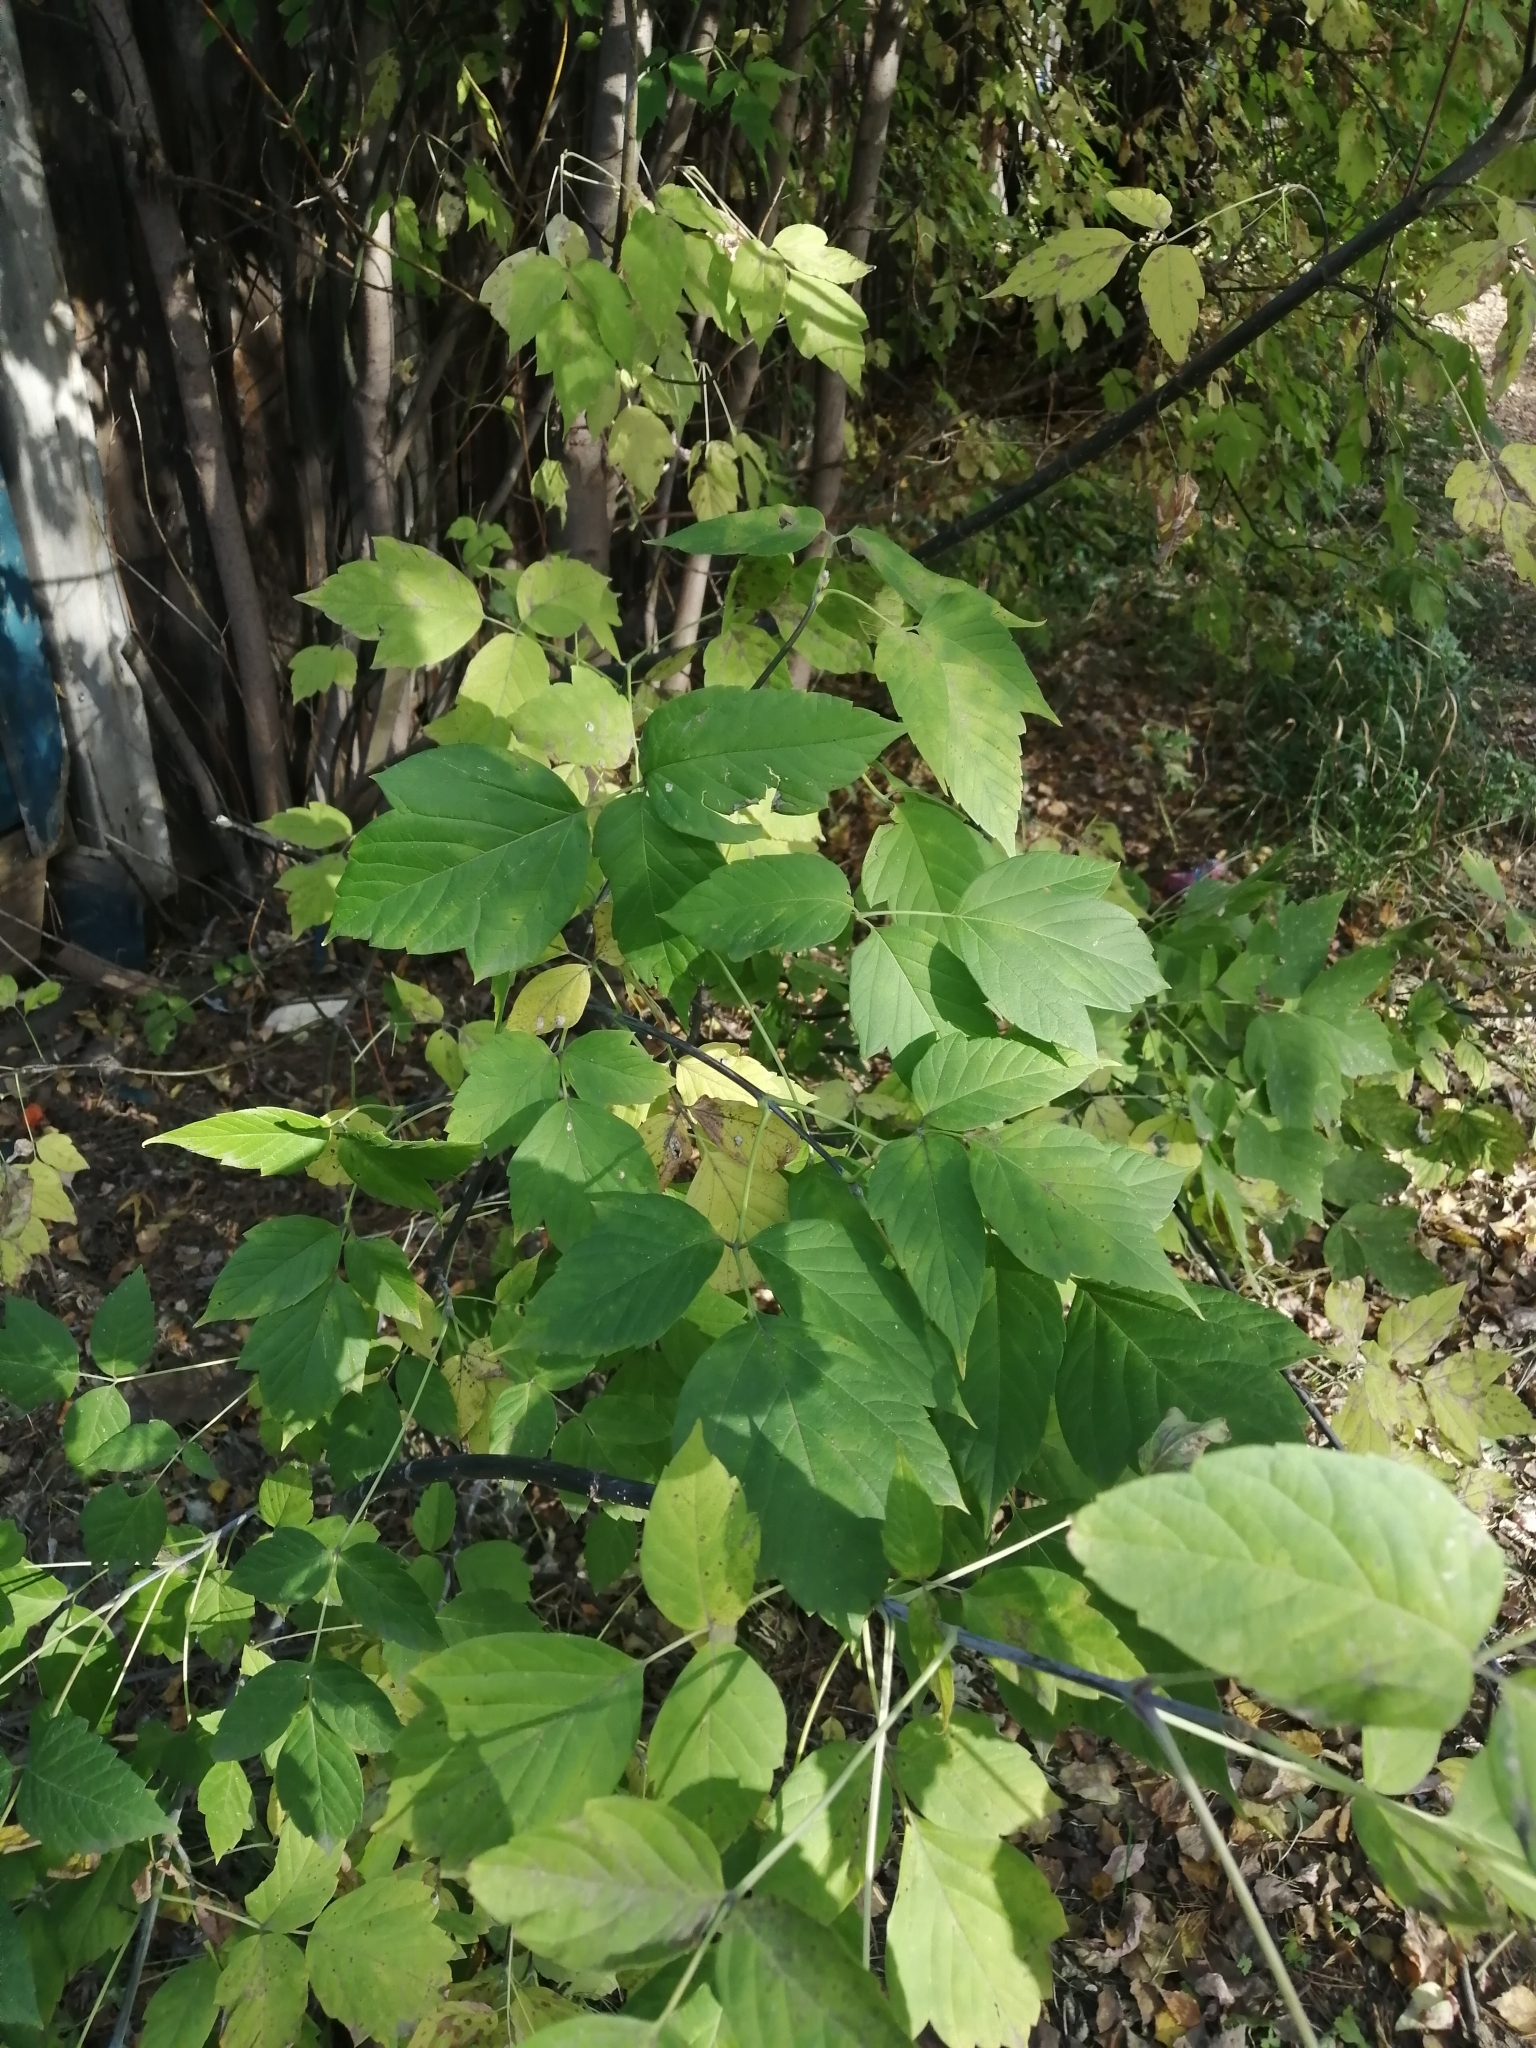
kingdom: Plantae
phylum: Tracheophyta
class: Magnoliopsida
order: Sapindales
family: Sapindaceae
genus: Acer
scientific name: Acer negundo
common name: Ashleaf maple
